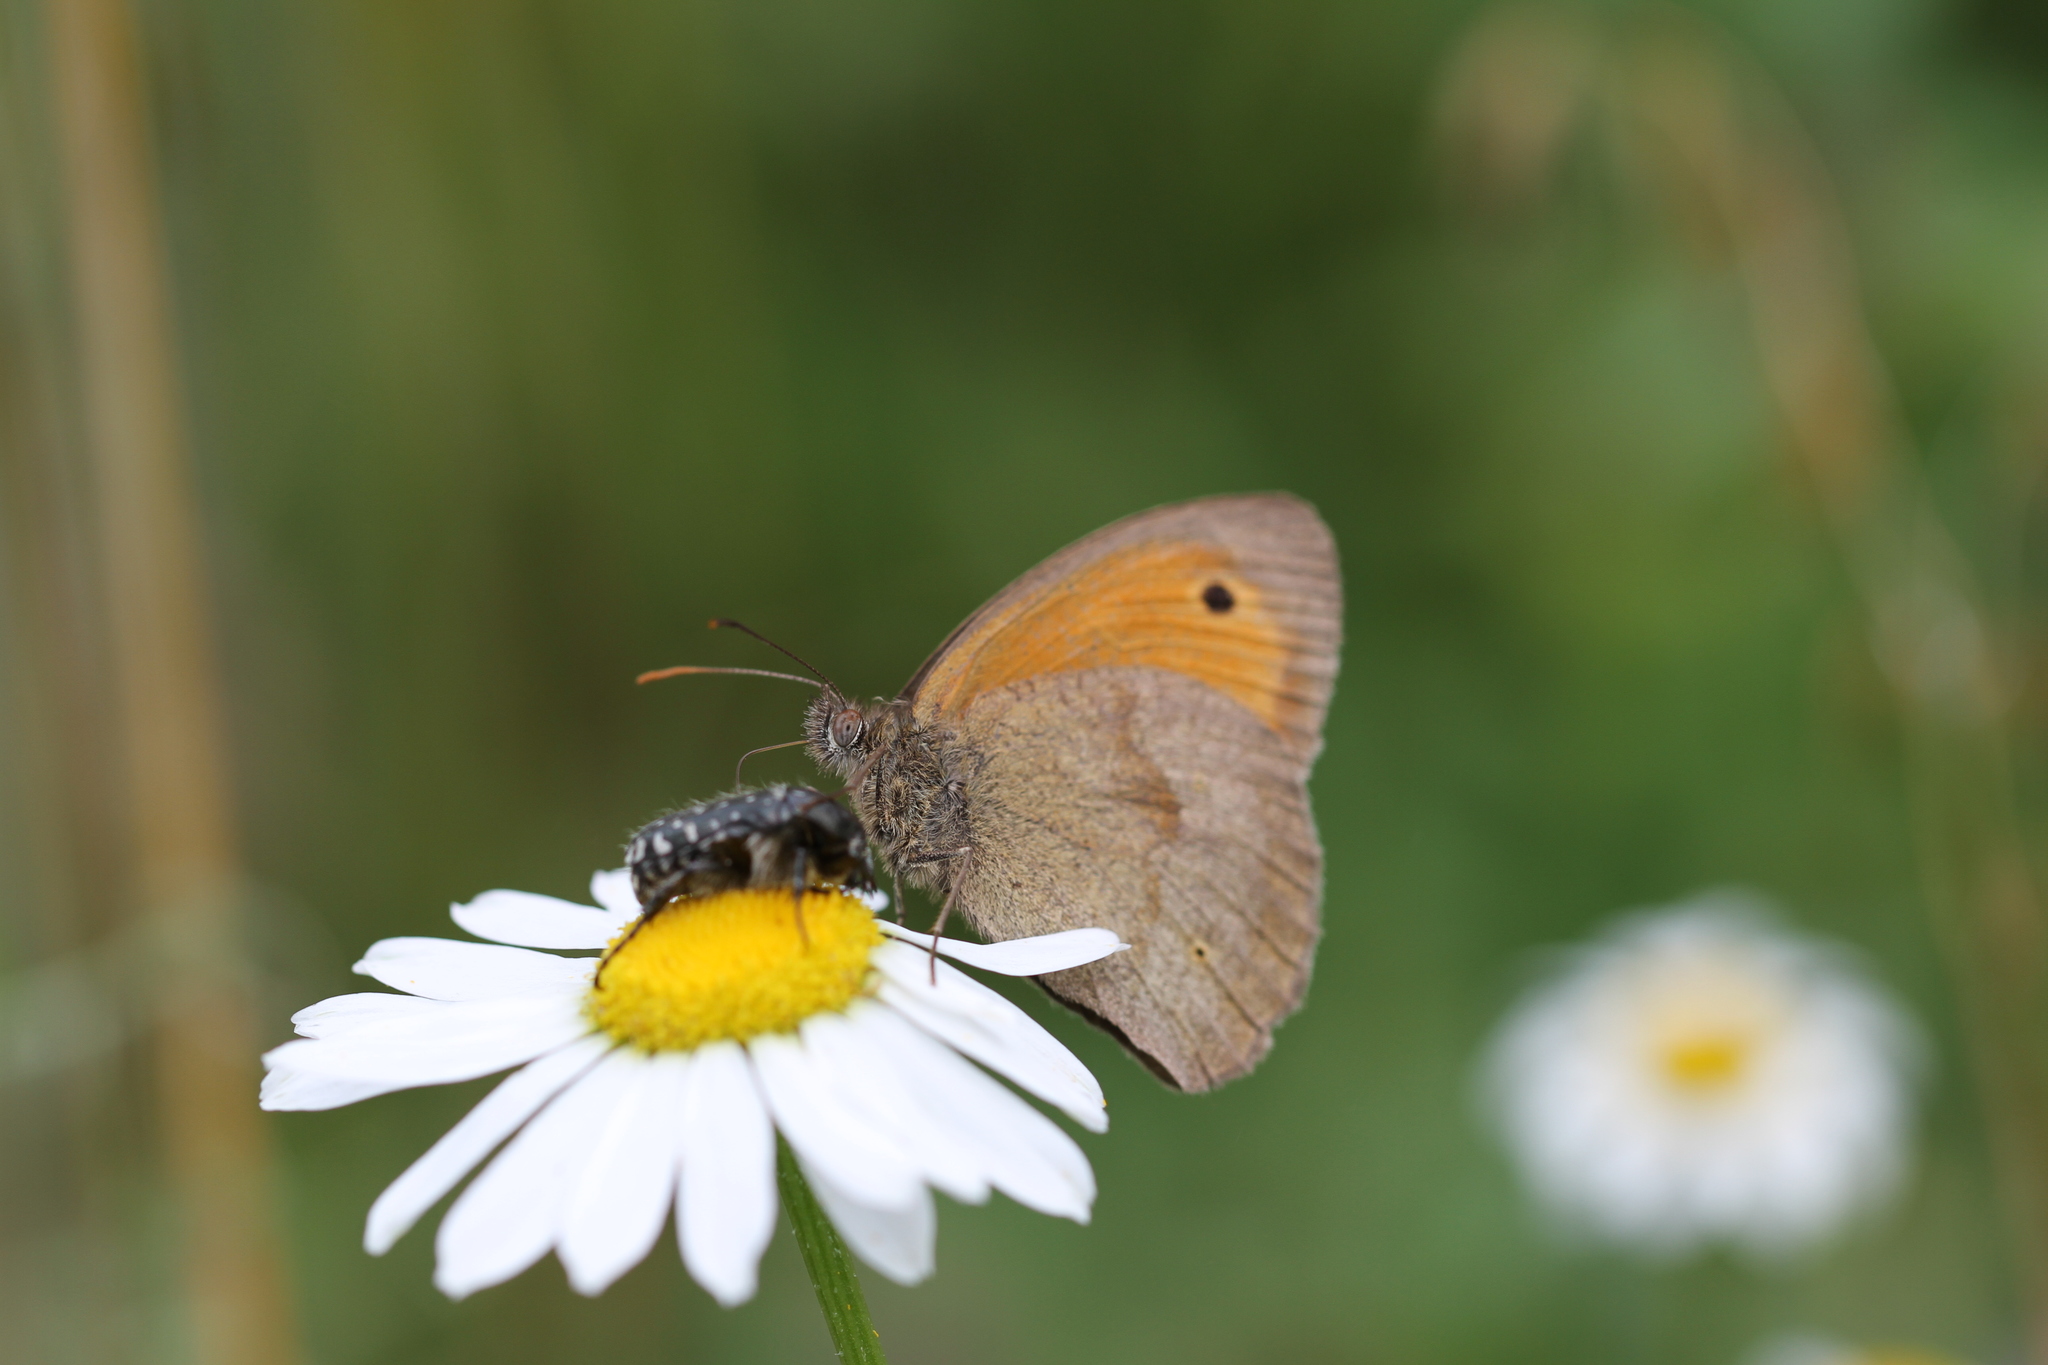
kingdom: Animalia
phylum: Arthropoda
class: Insecta
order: Lepidoptera
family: Nymphalidae
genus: Maniola
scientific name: Maniola jurtina
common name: Meadow brown
